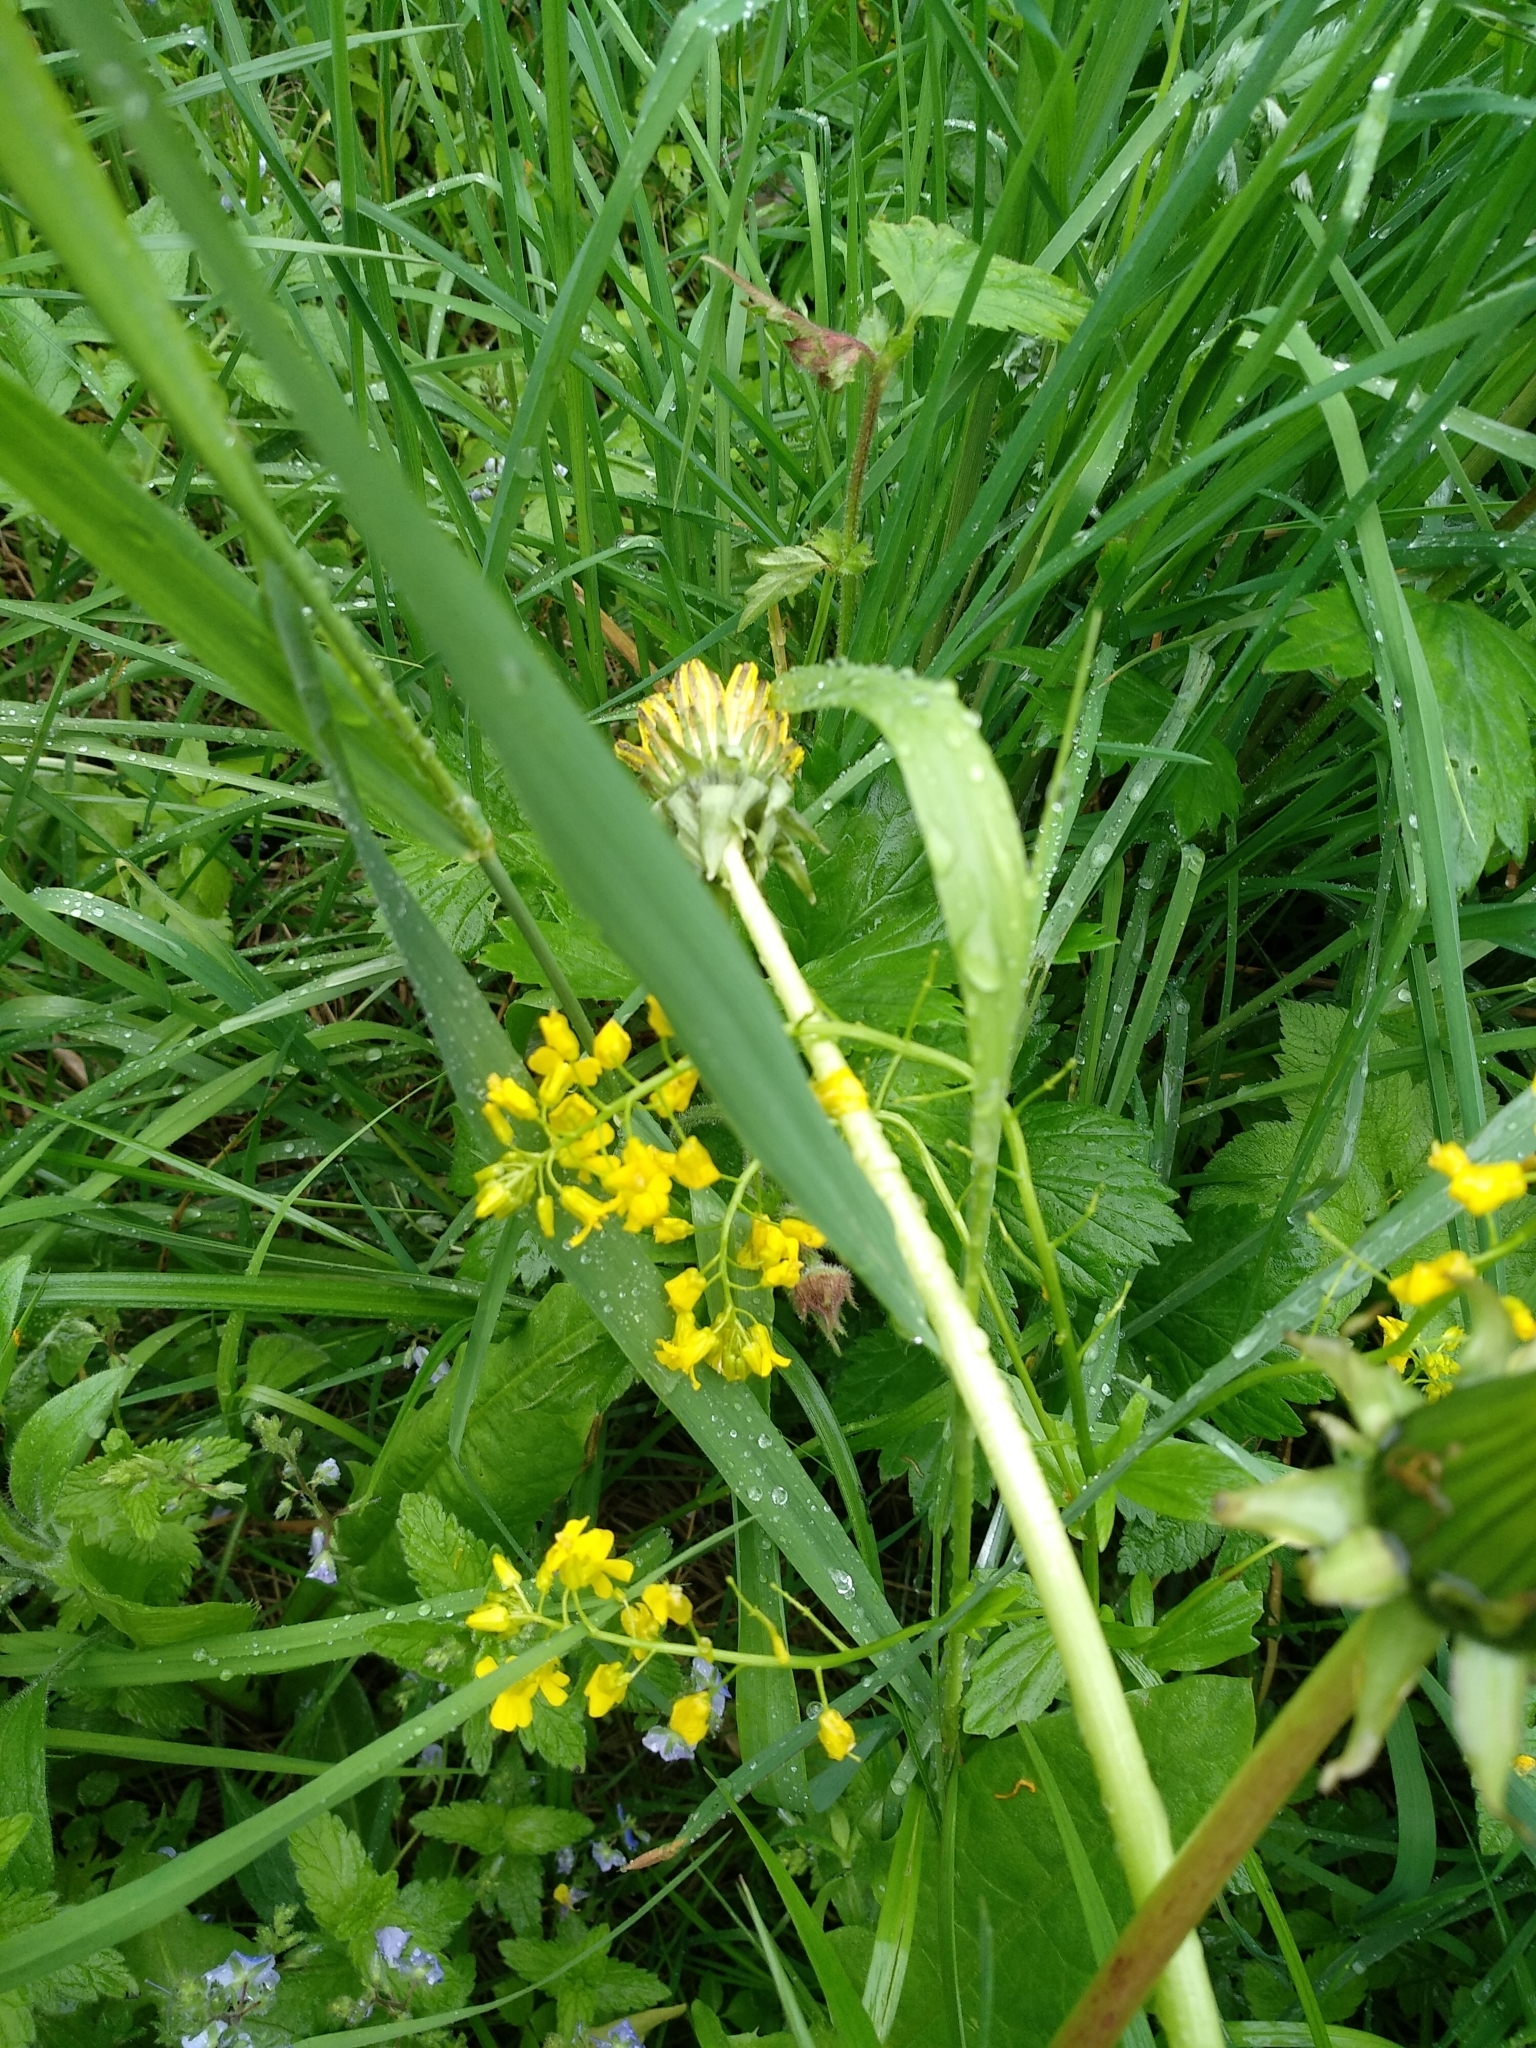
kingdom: Plantae
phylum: Tracheophyta
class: Magnoliopsida
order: Brassicales
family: Brassicaceae
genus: Barbarea
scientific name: Barbarea vulgaris
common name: Cressy-greens
